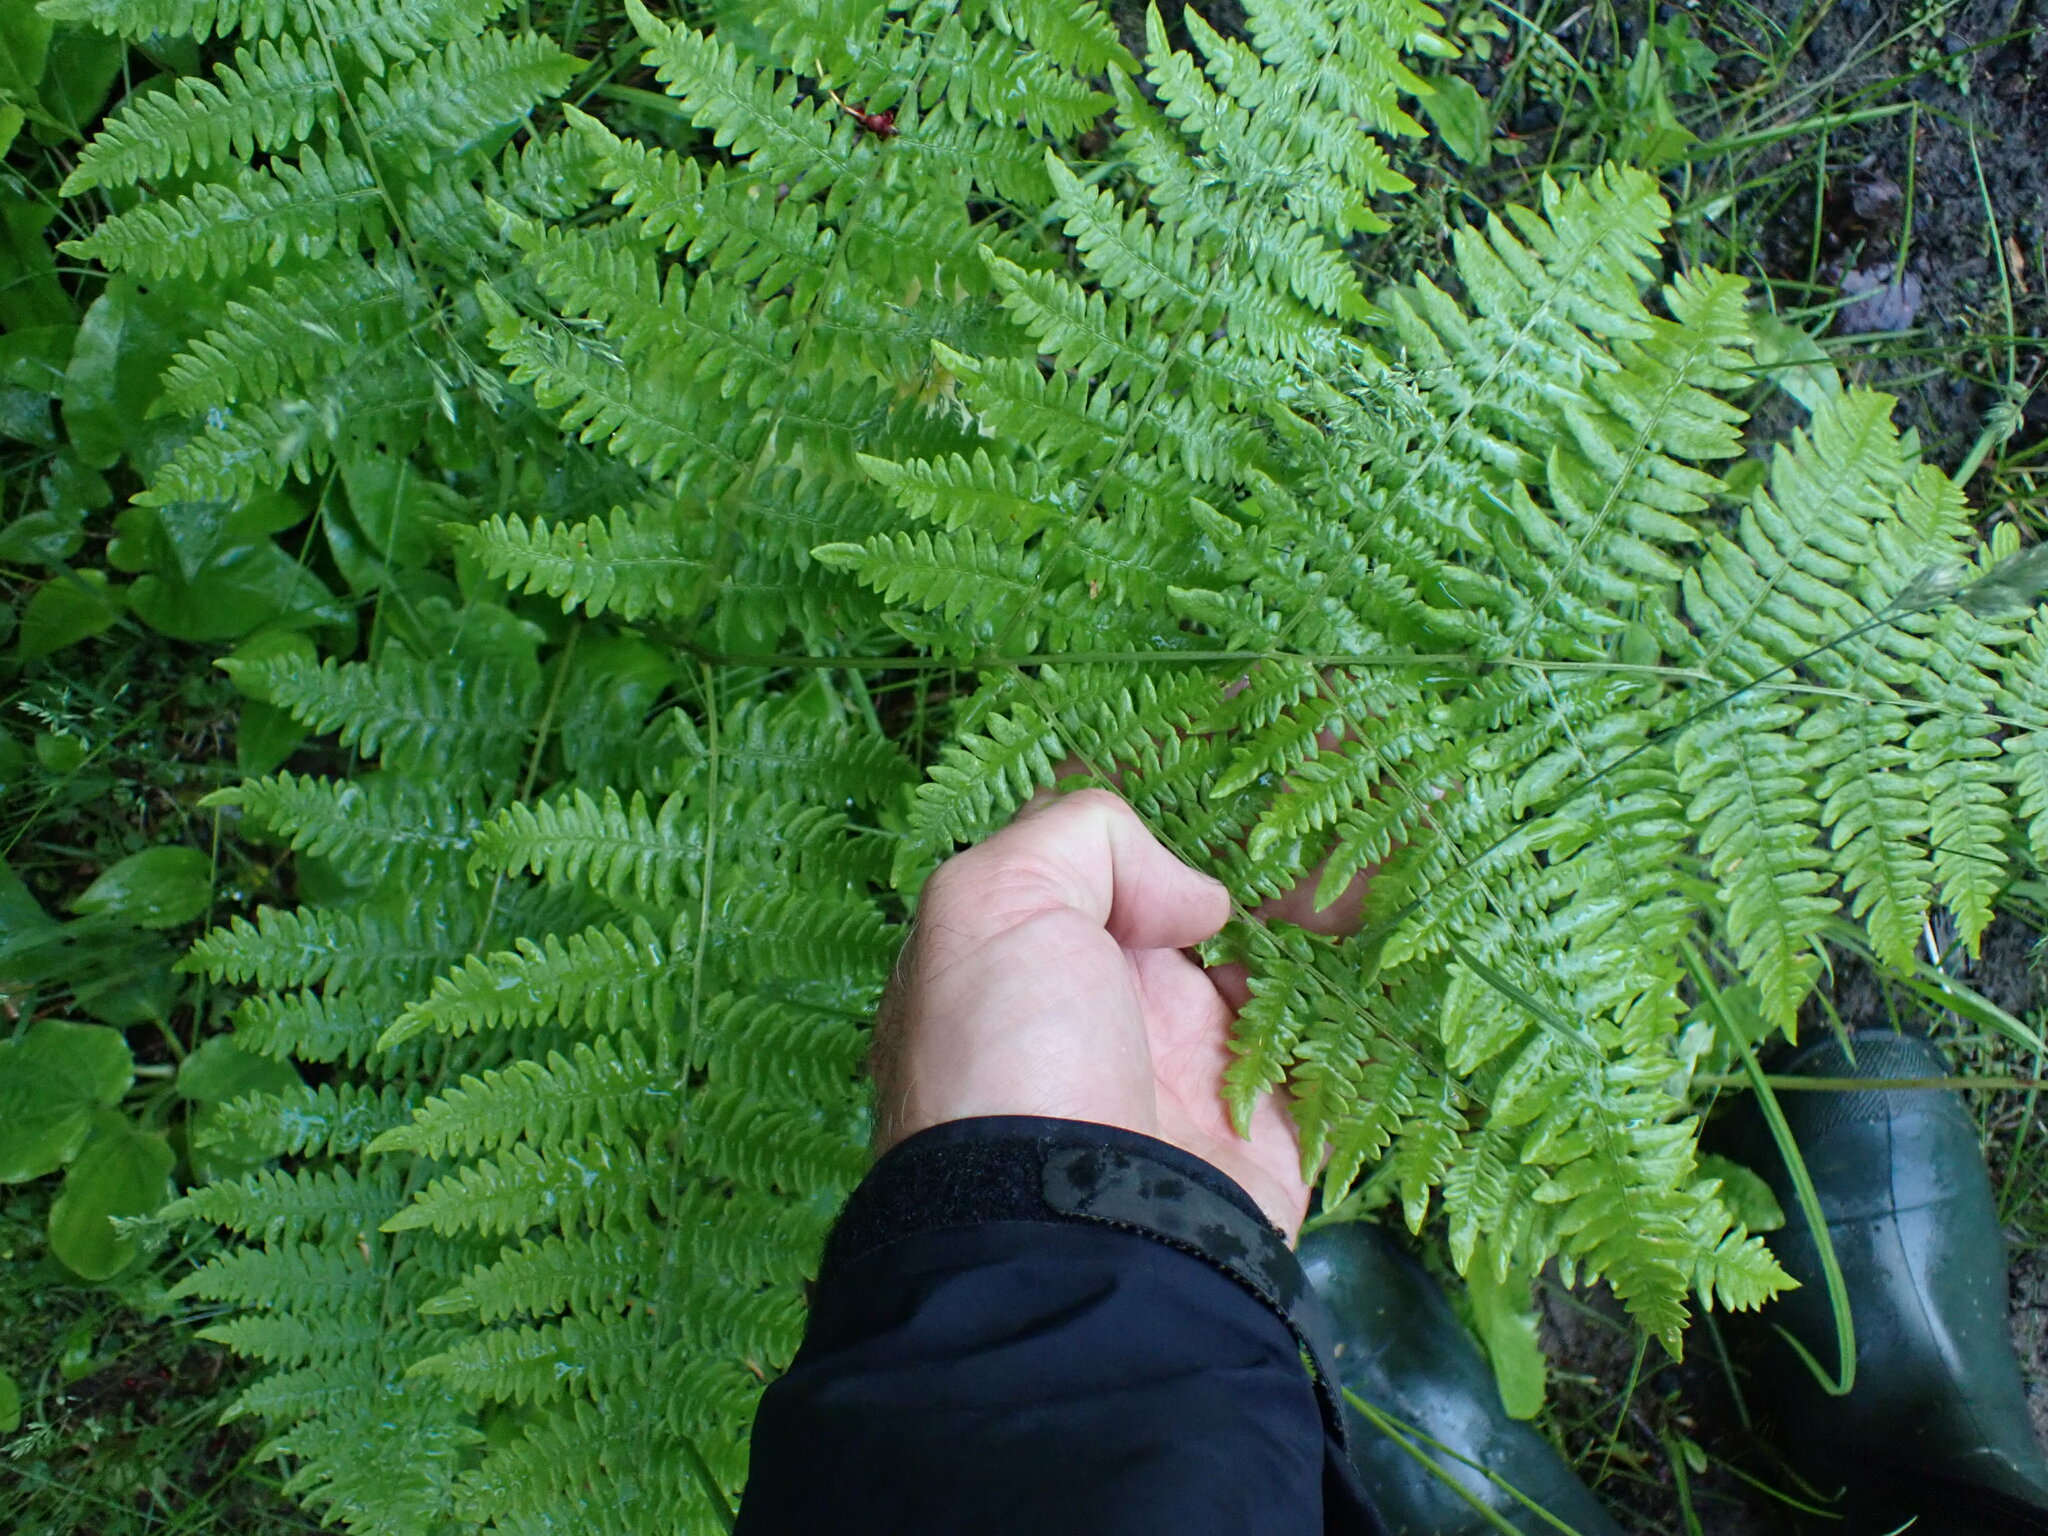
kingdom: Plantae
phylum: Tracheophyta
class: Polypodiopsida
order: Polypodiales
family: Dennstaedtiaceae
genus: Pteridium
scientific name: Pteridium aquilinum
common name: Bracken
